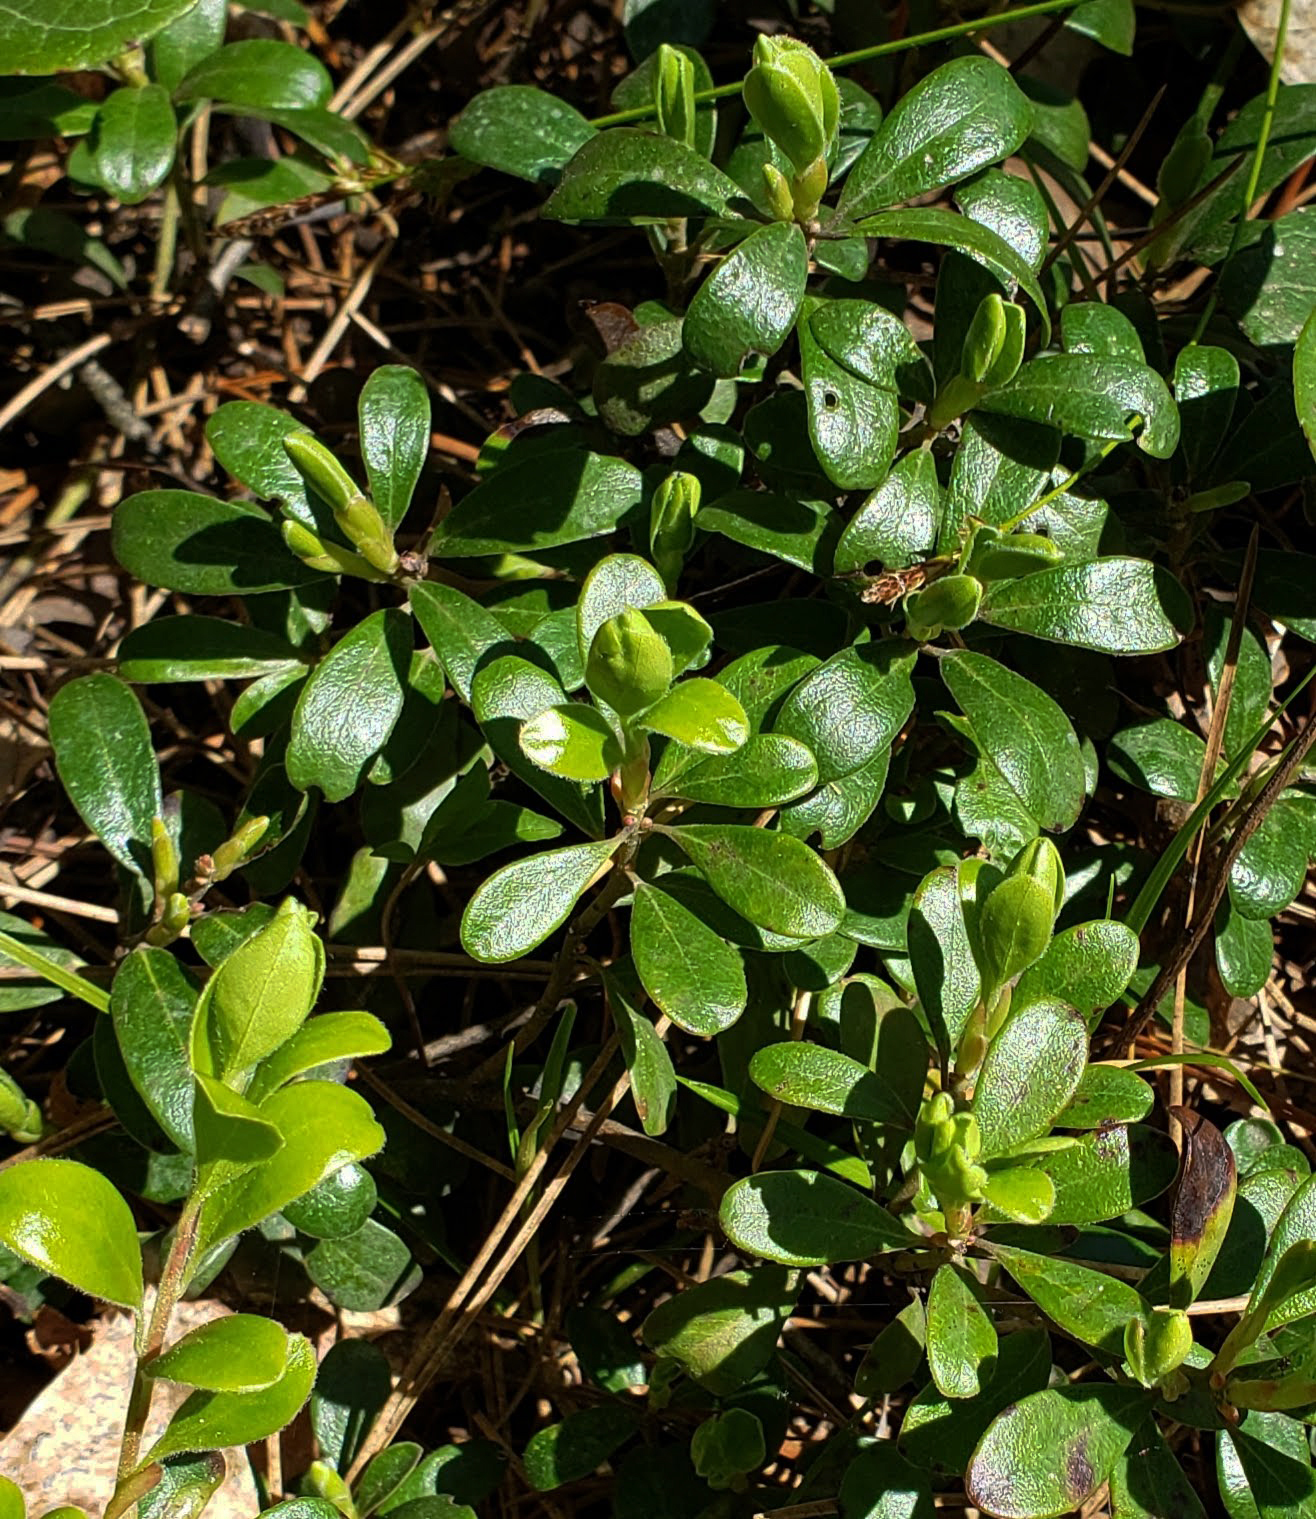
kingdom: Plantae
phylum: Tracheophyta
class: Magnoliopsida
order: Ericales
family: Ericaceae
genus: Arctostaphylos
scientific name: Arctostaphylos uva-ursi
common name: Bearberry
